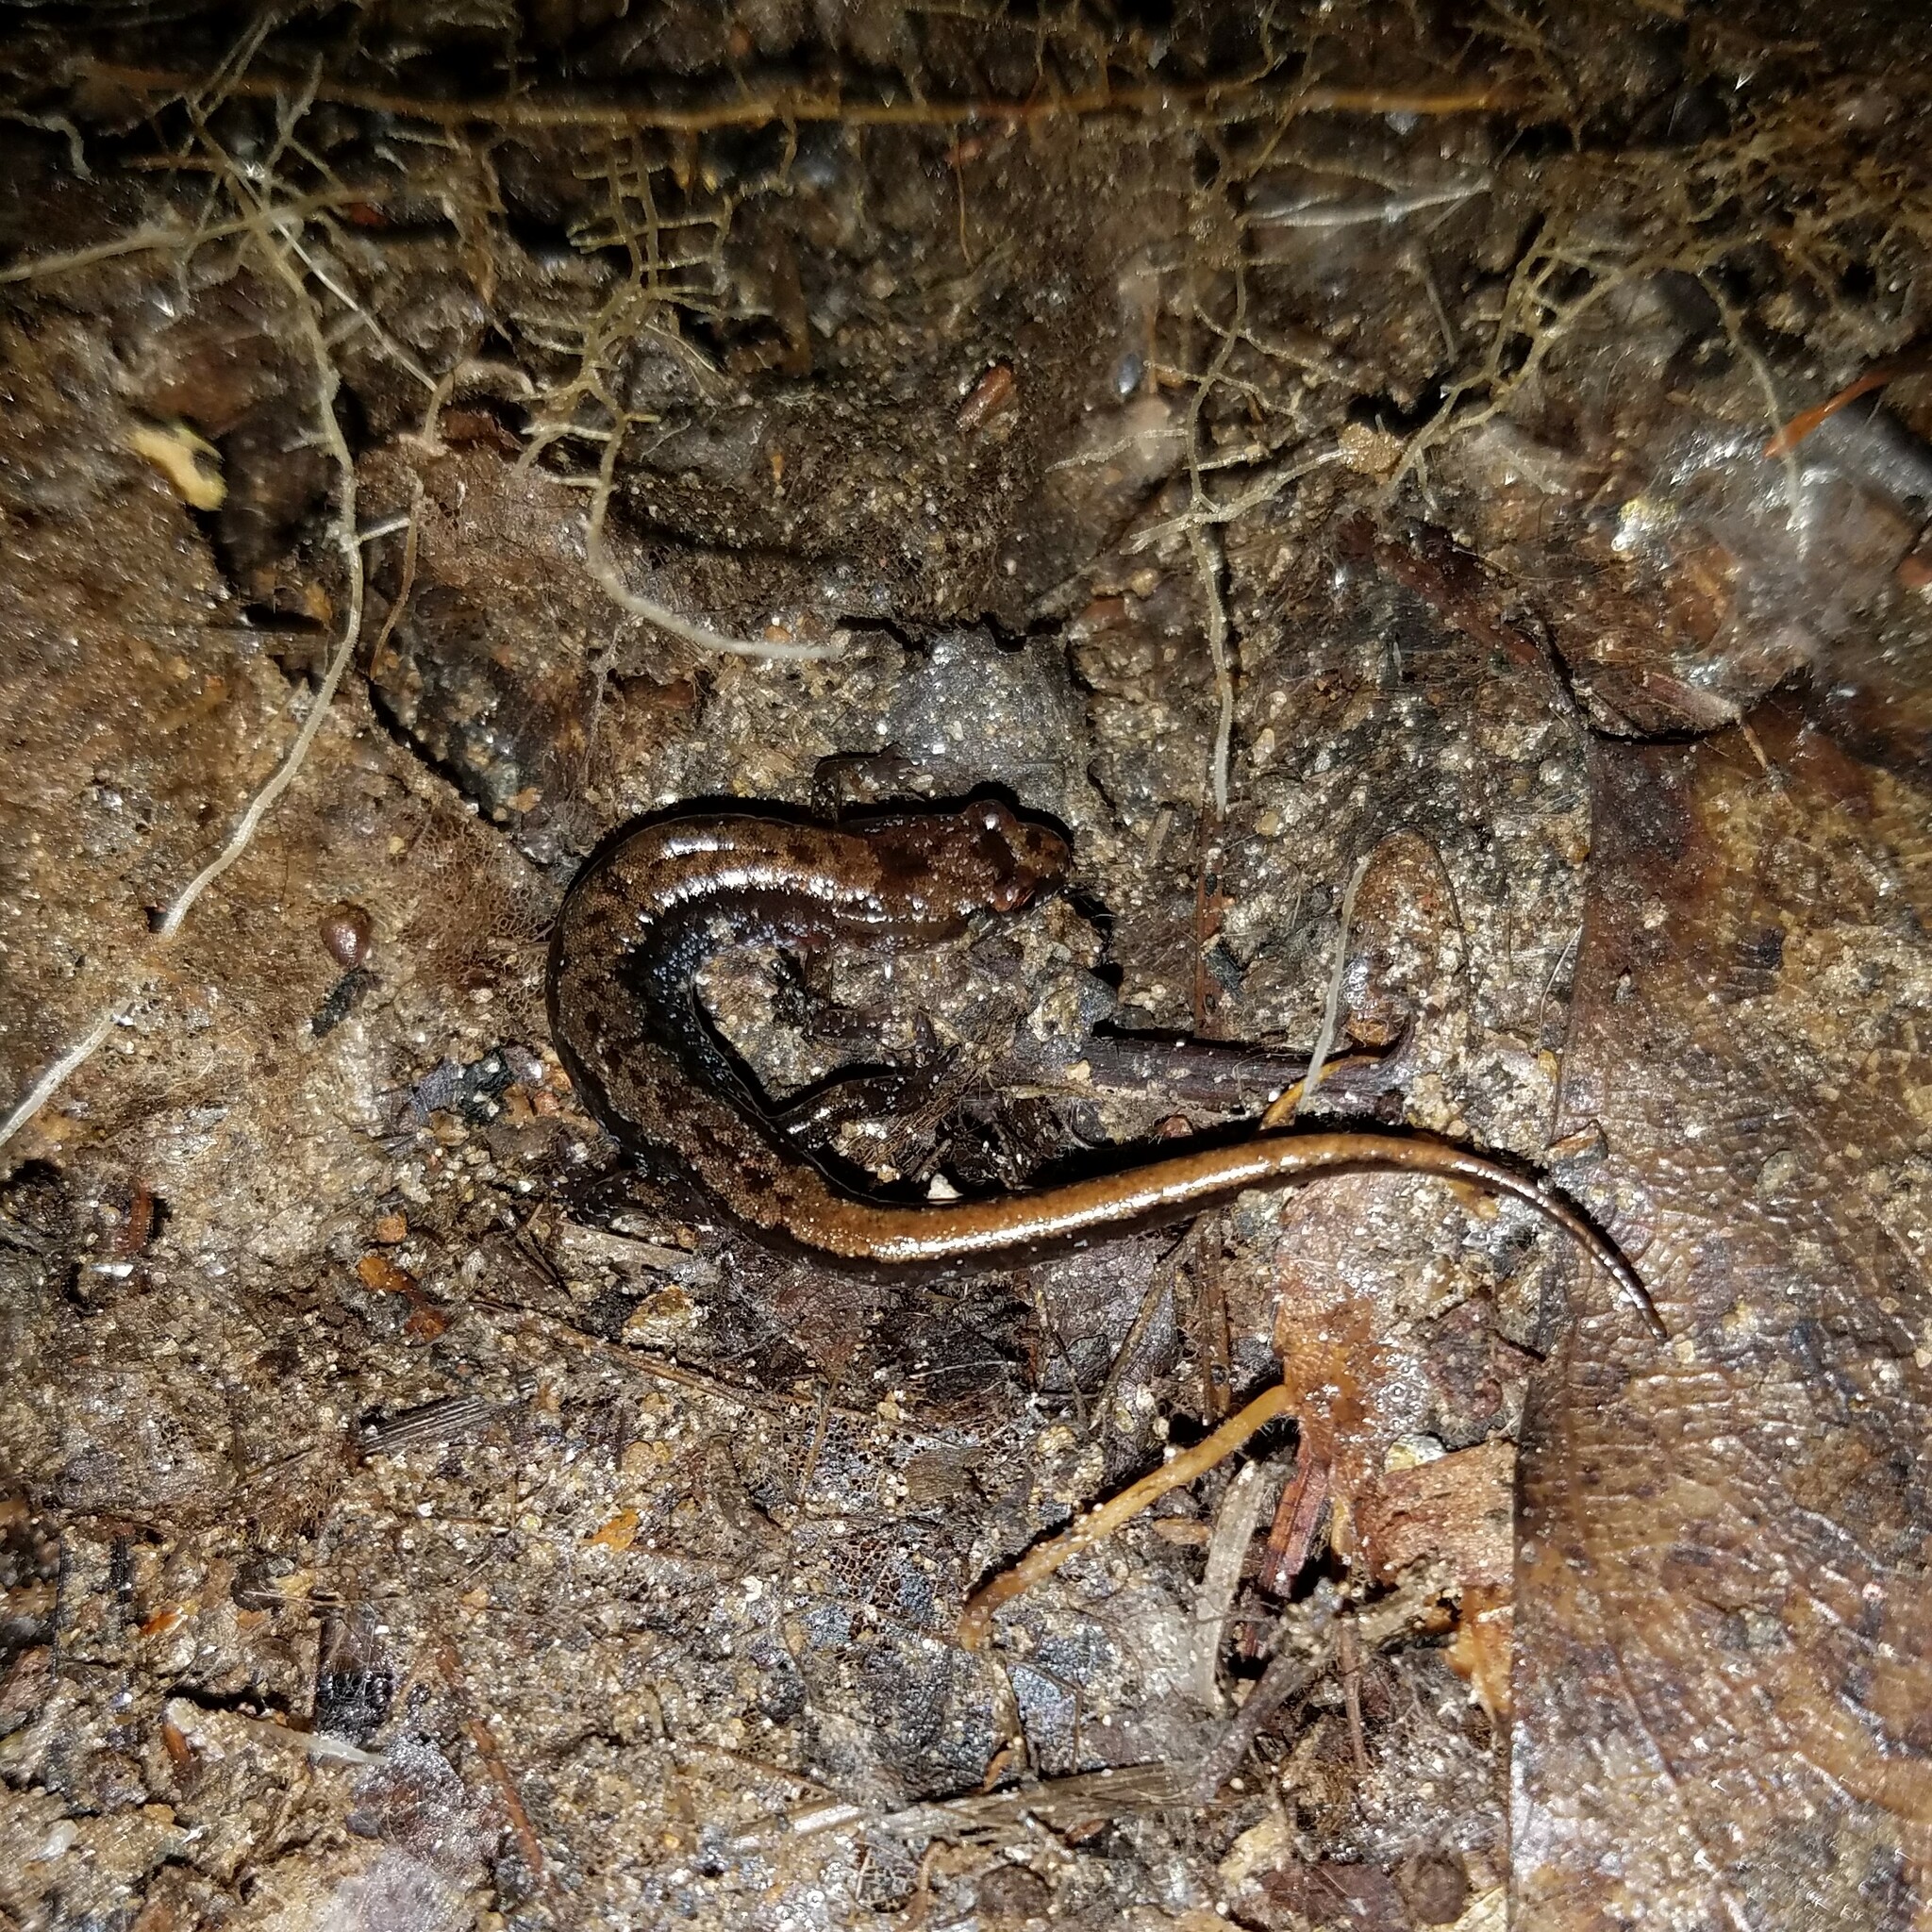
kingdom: Animalia
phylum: Chordata
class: Amphibia
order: Caudata
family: Plethodontidae
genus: Desmognathus
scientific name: Desmognathus aeneus
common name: Seepage salamander
